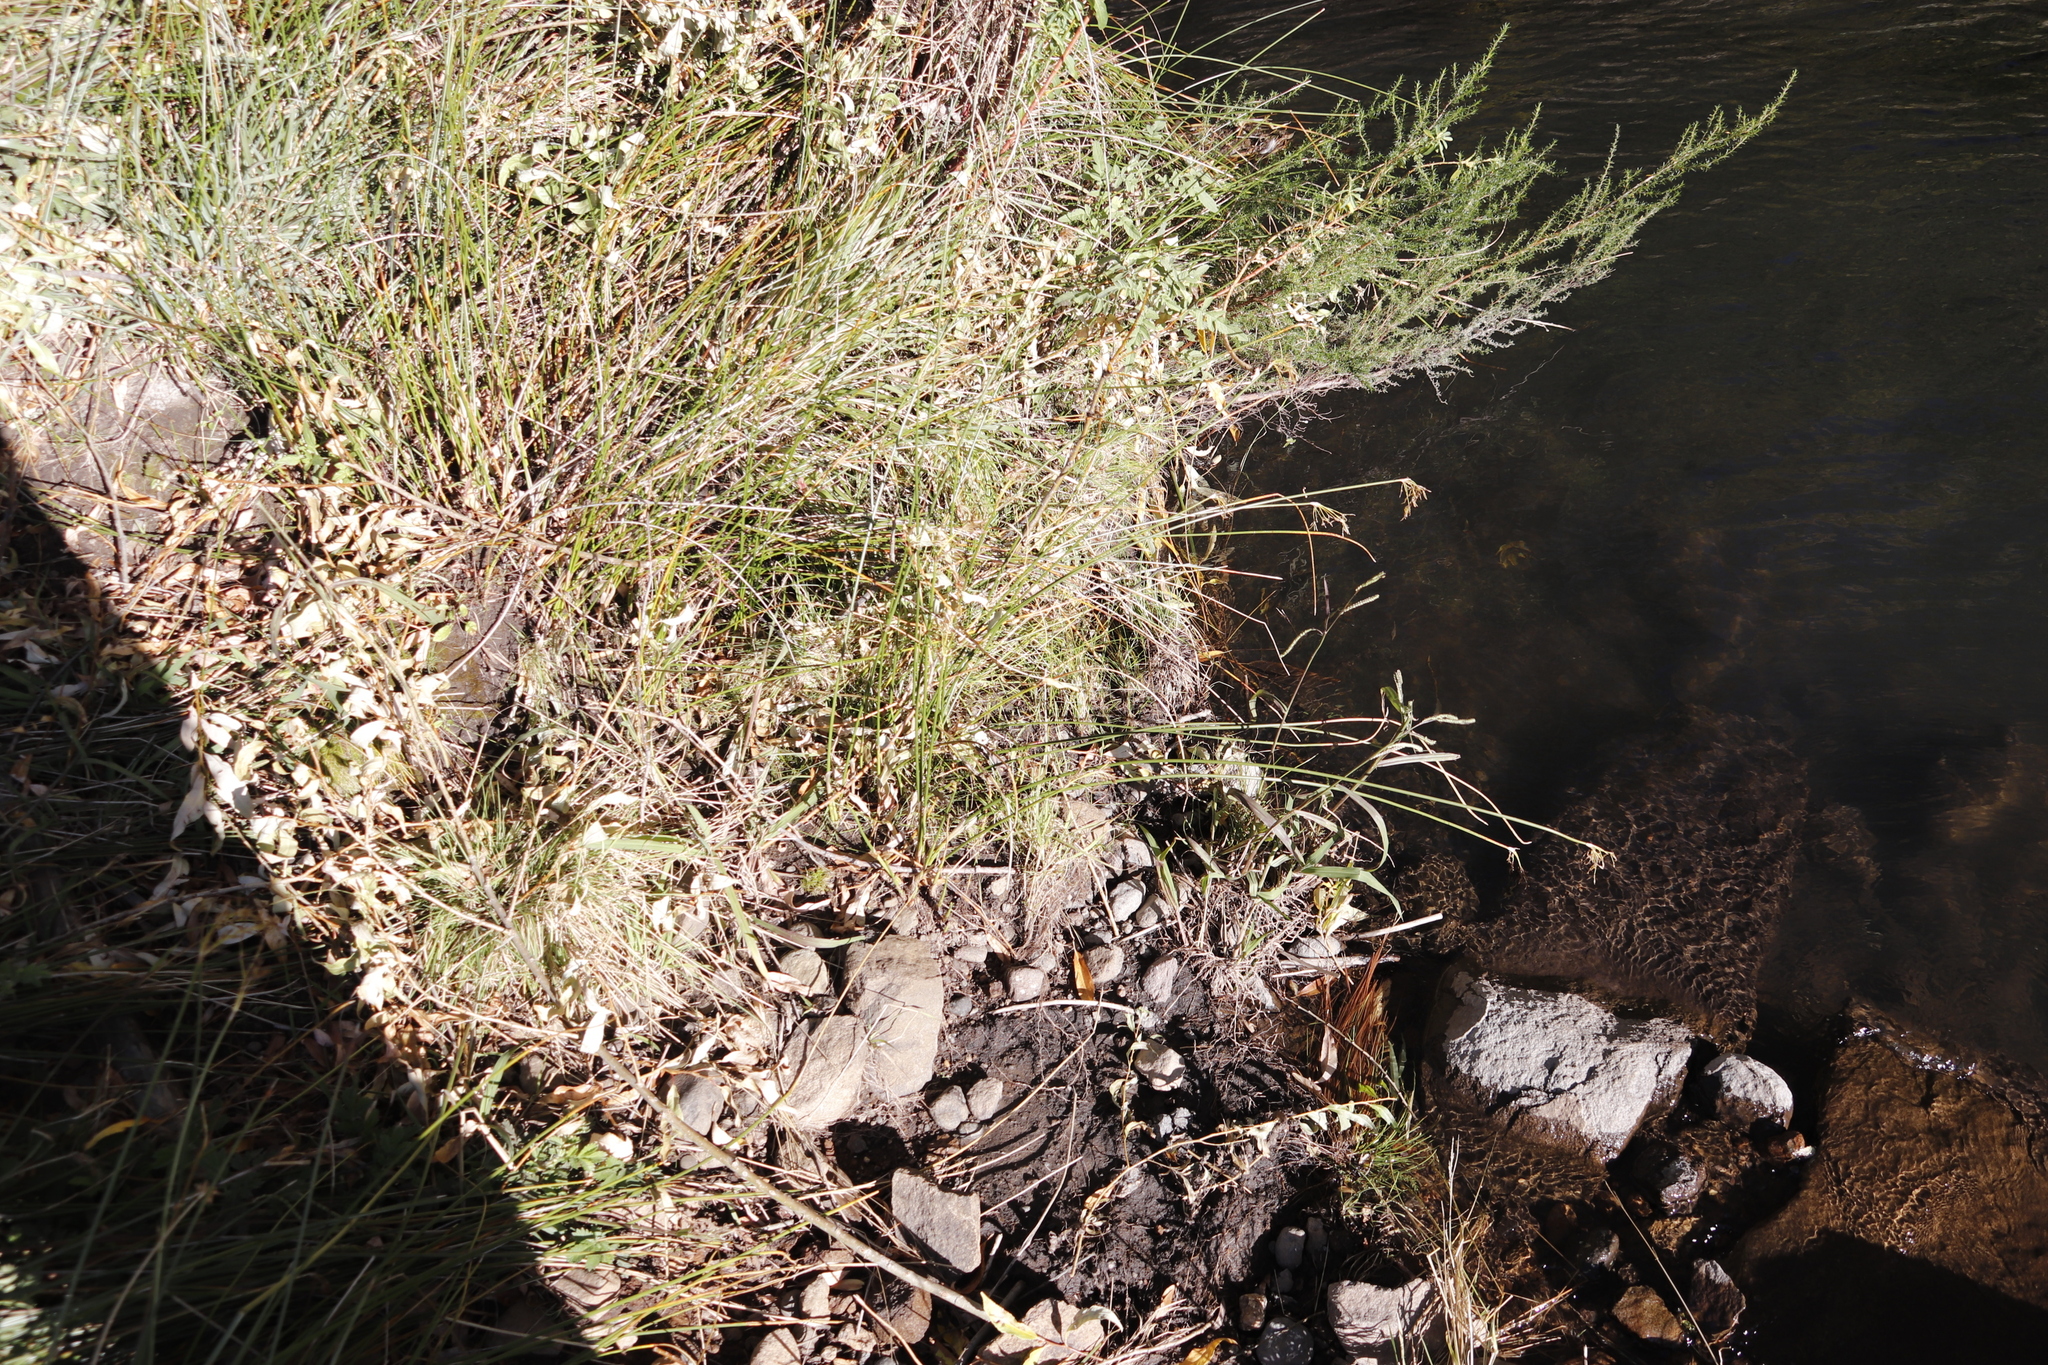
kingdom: Plantae
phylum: Tracheophyta
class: Liliopsida
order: Poales
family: Cyperaceae
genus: Cyperus
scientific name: Cyperus denudatus
